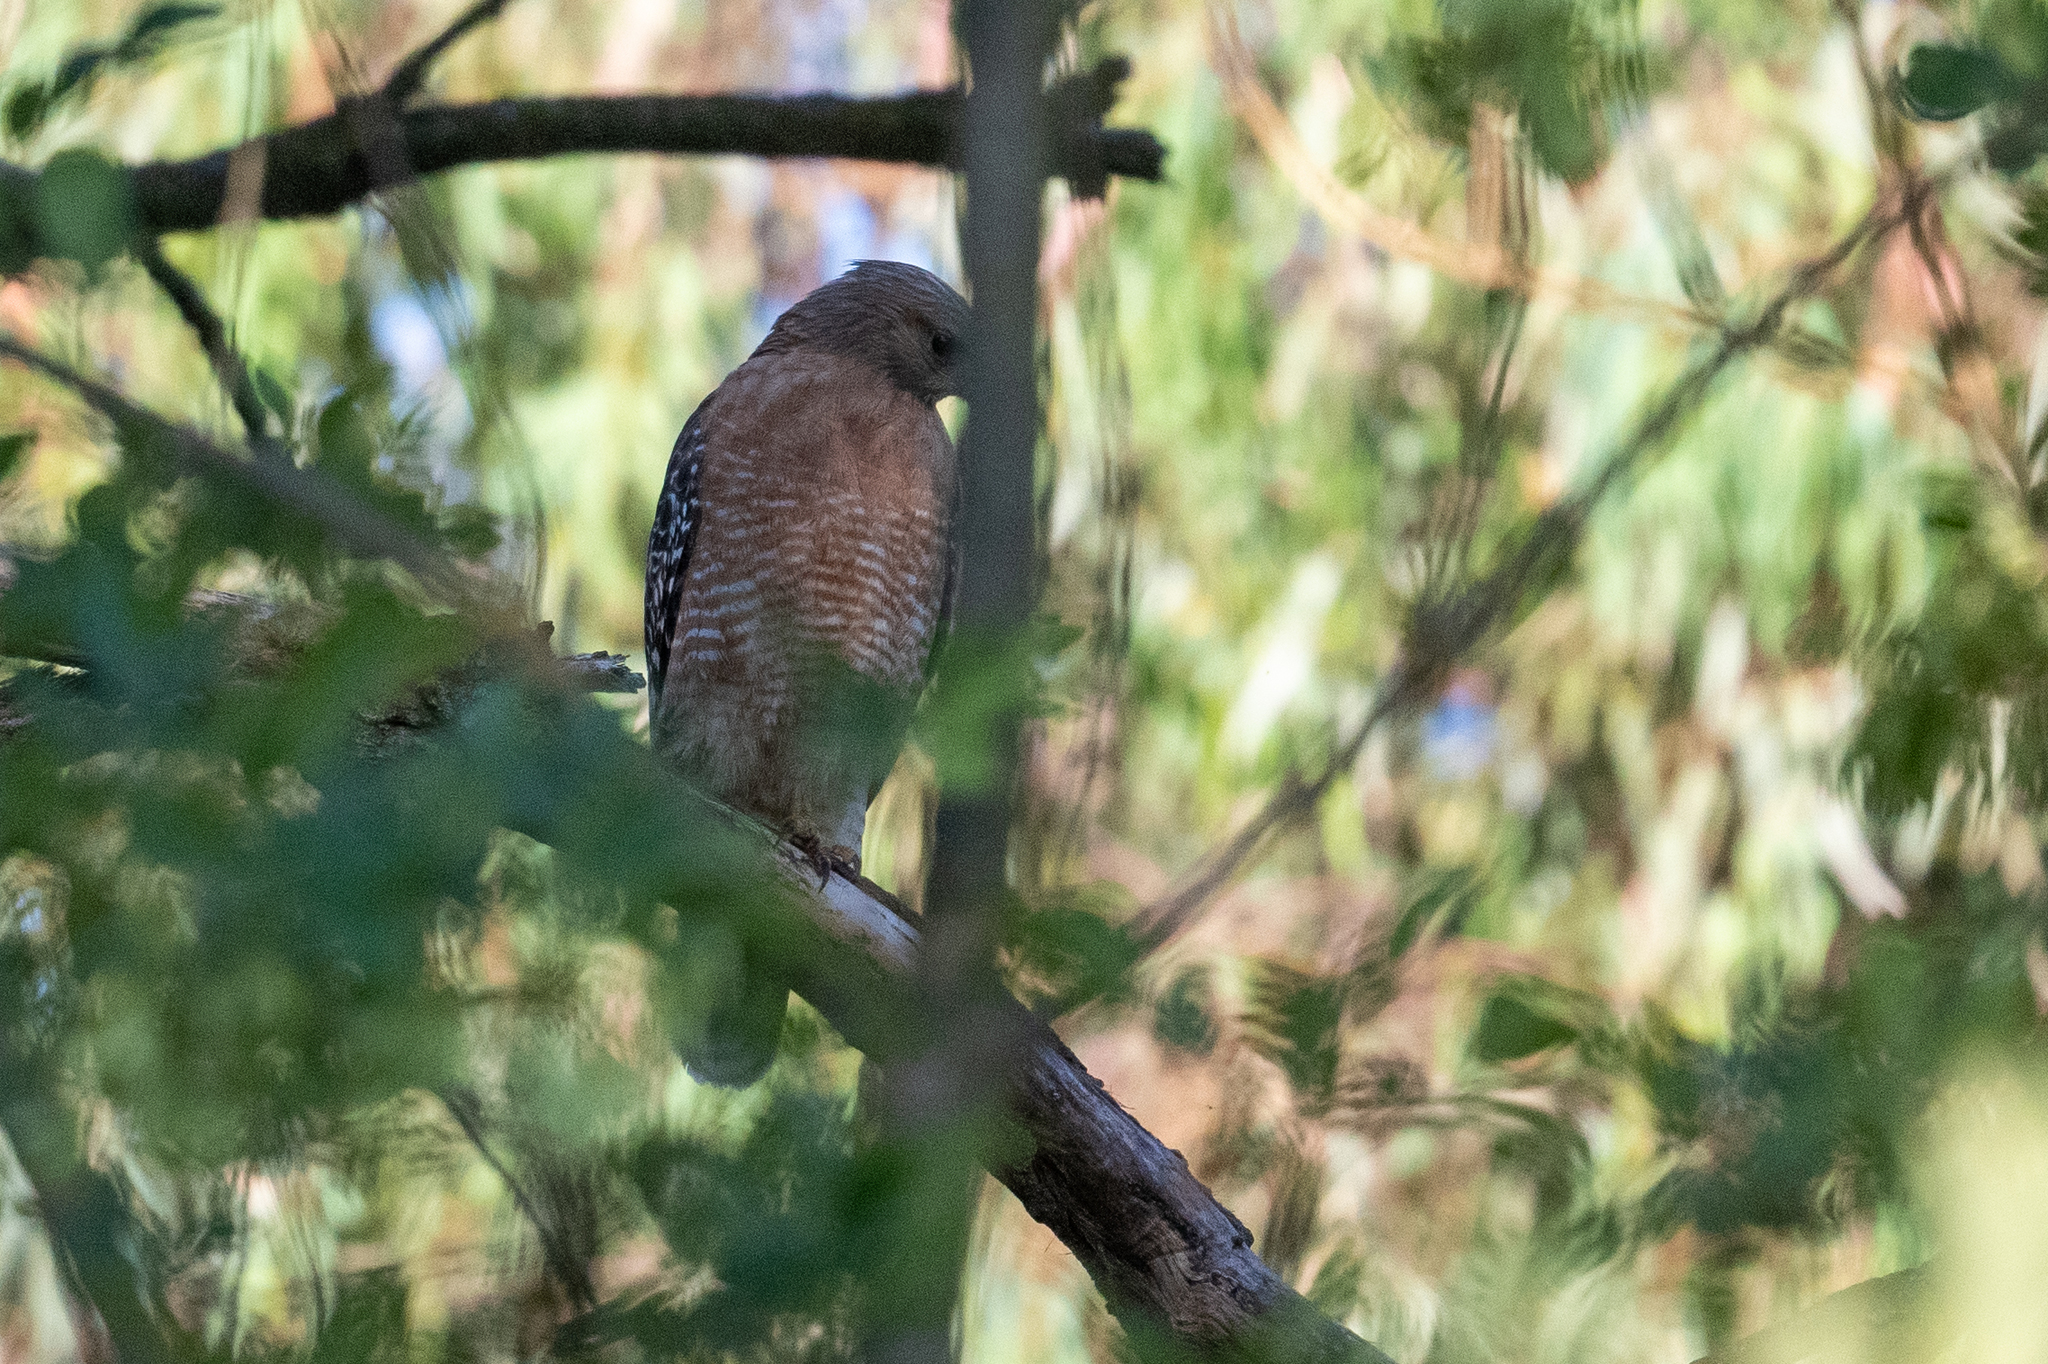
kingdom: Animalia
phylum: Chordata
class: Aves
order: Accipitriformes
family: Accipitridae
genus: Buteo
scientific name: Buteo lineatus
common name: Red-shouldered hawk
